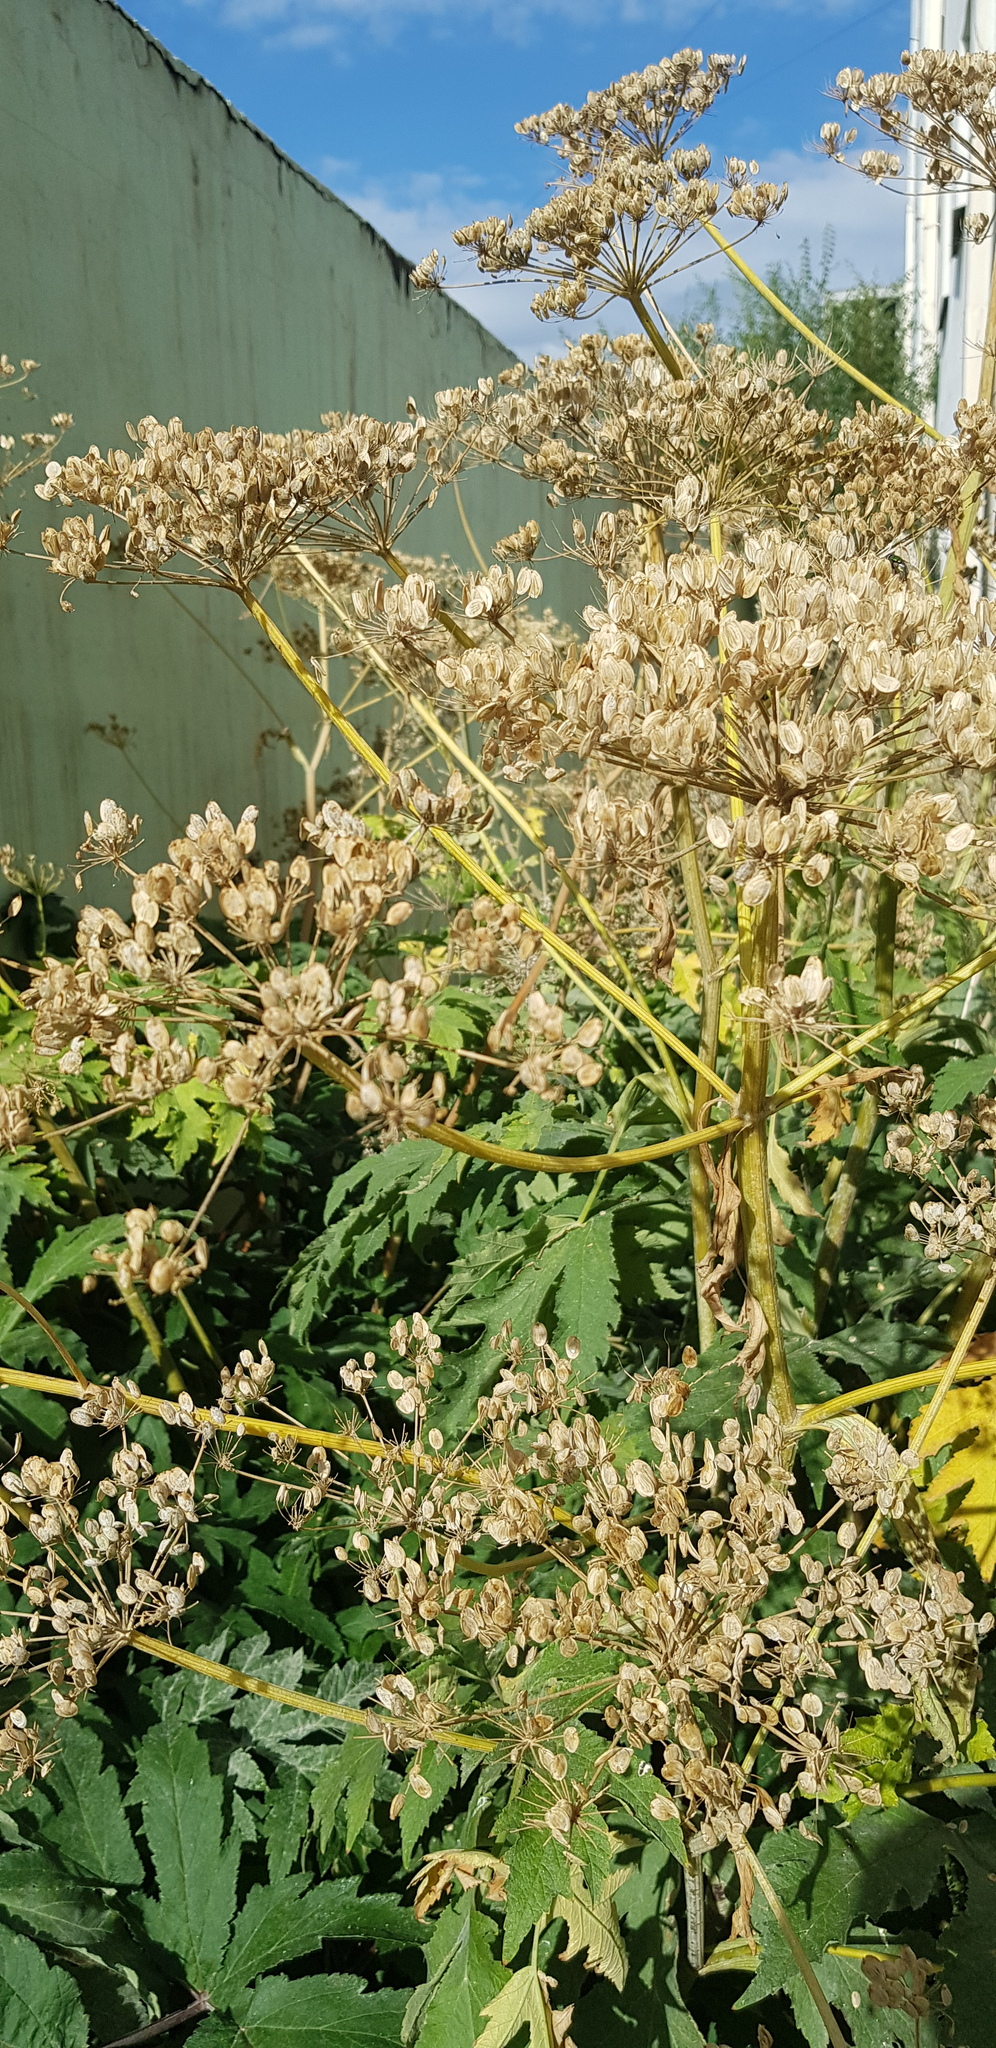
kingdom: Plantae
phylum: Tracheophyta
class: Magnoliopsida
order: Apiales
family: Apiaceae
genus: Heracleum
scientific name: Heracleum dissectum
